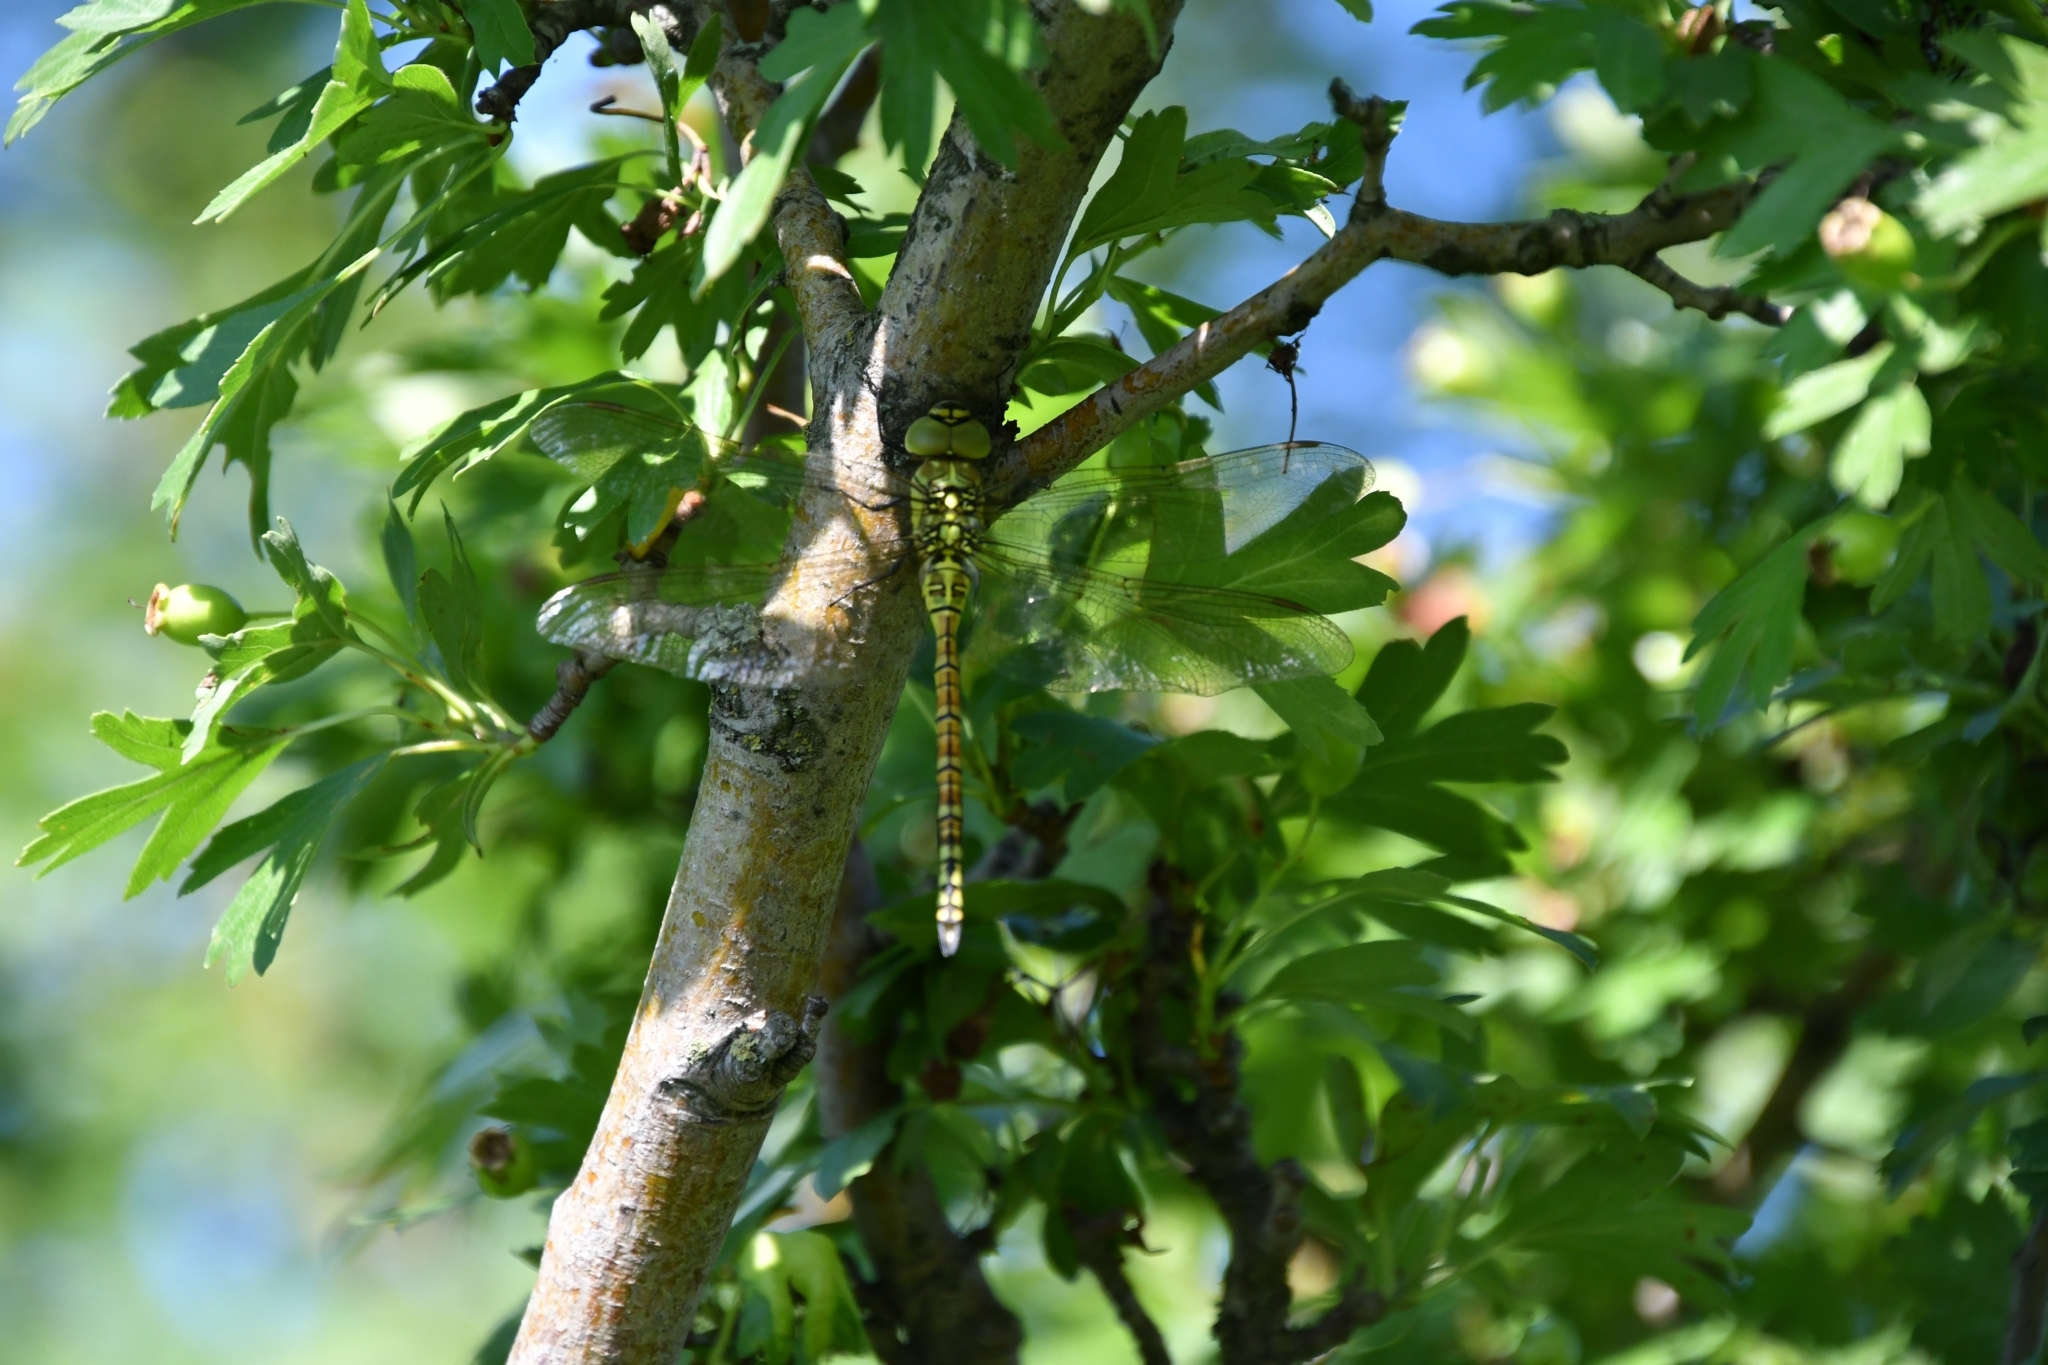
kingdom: Animalia
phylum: Arthropoda
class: Insecta
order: Odonata
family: Aeshnidae
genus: Aeshna
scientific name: Aeshna affinis
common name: Southern migrant hawker
